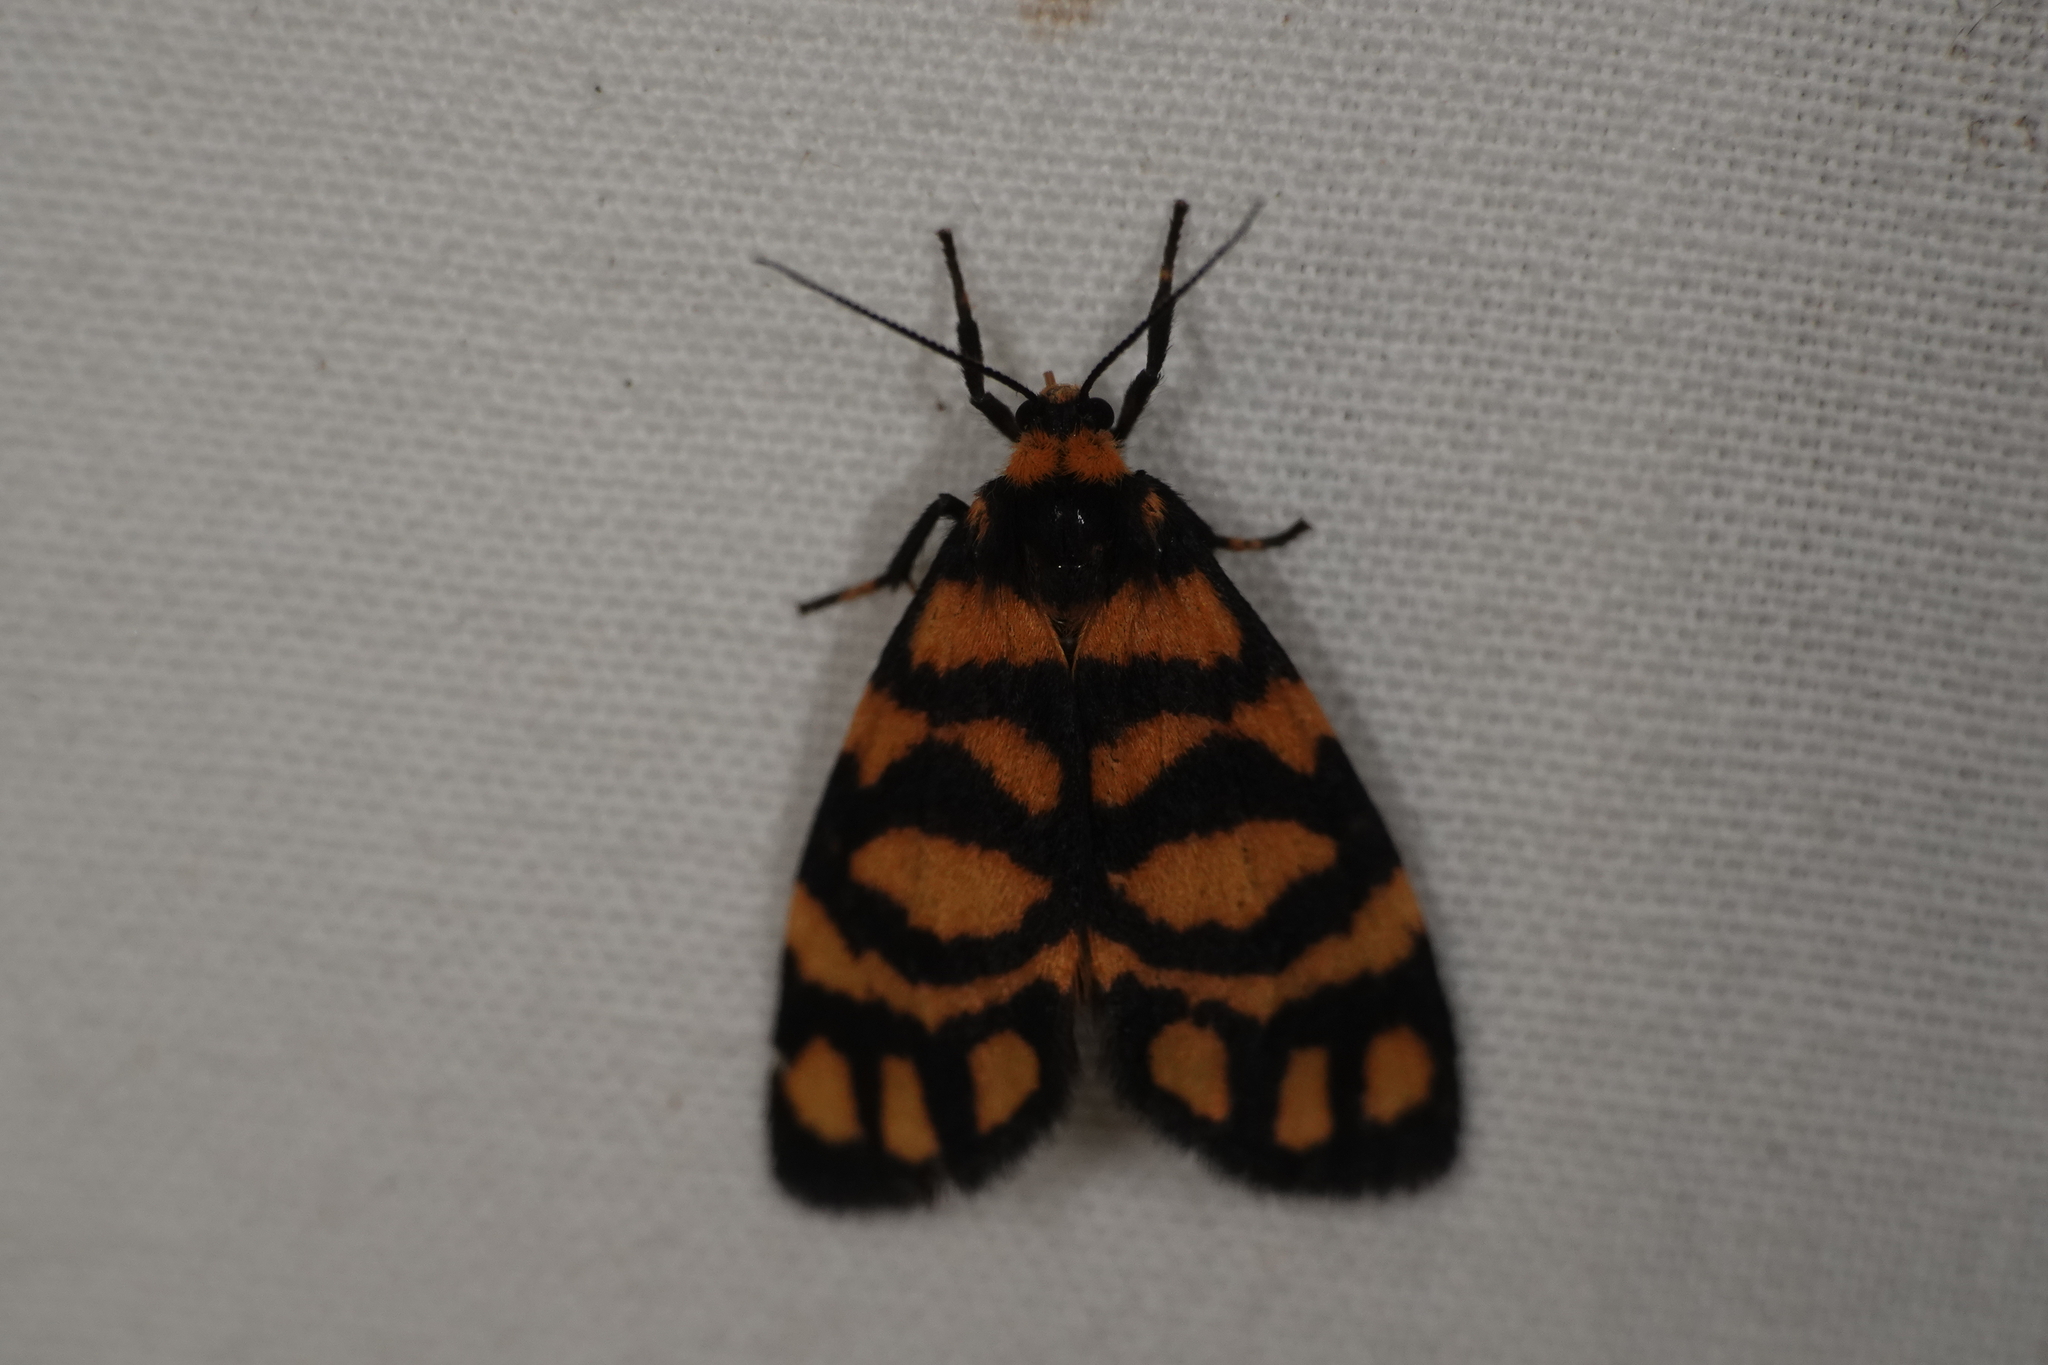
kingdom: Animalia
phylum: Arthropoda
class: Insecta
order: Lepidoptera
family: Erebidae
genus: Asura
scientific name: Asura lydia
